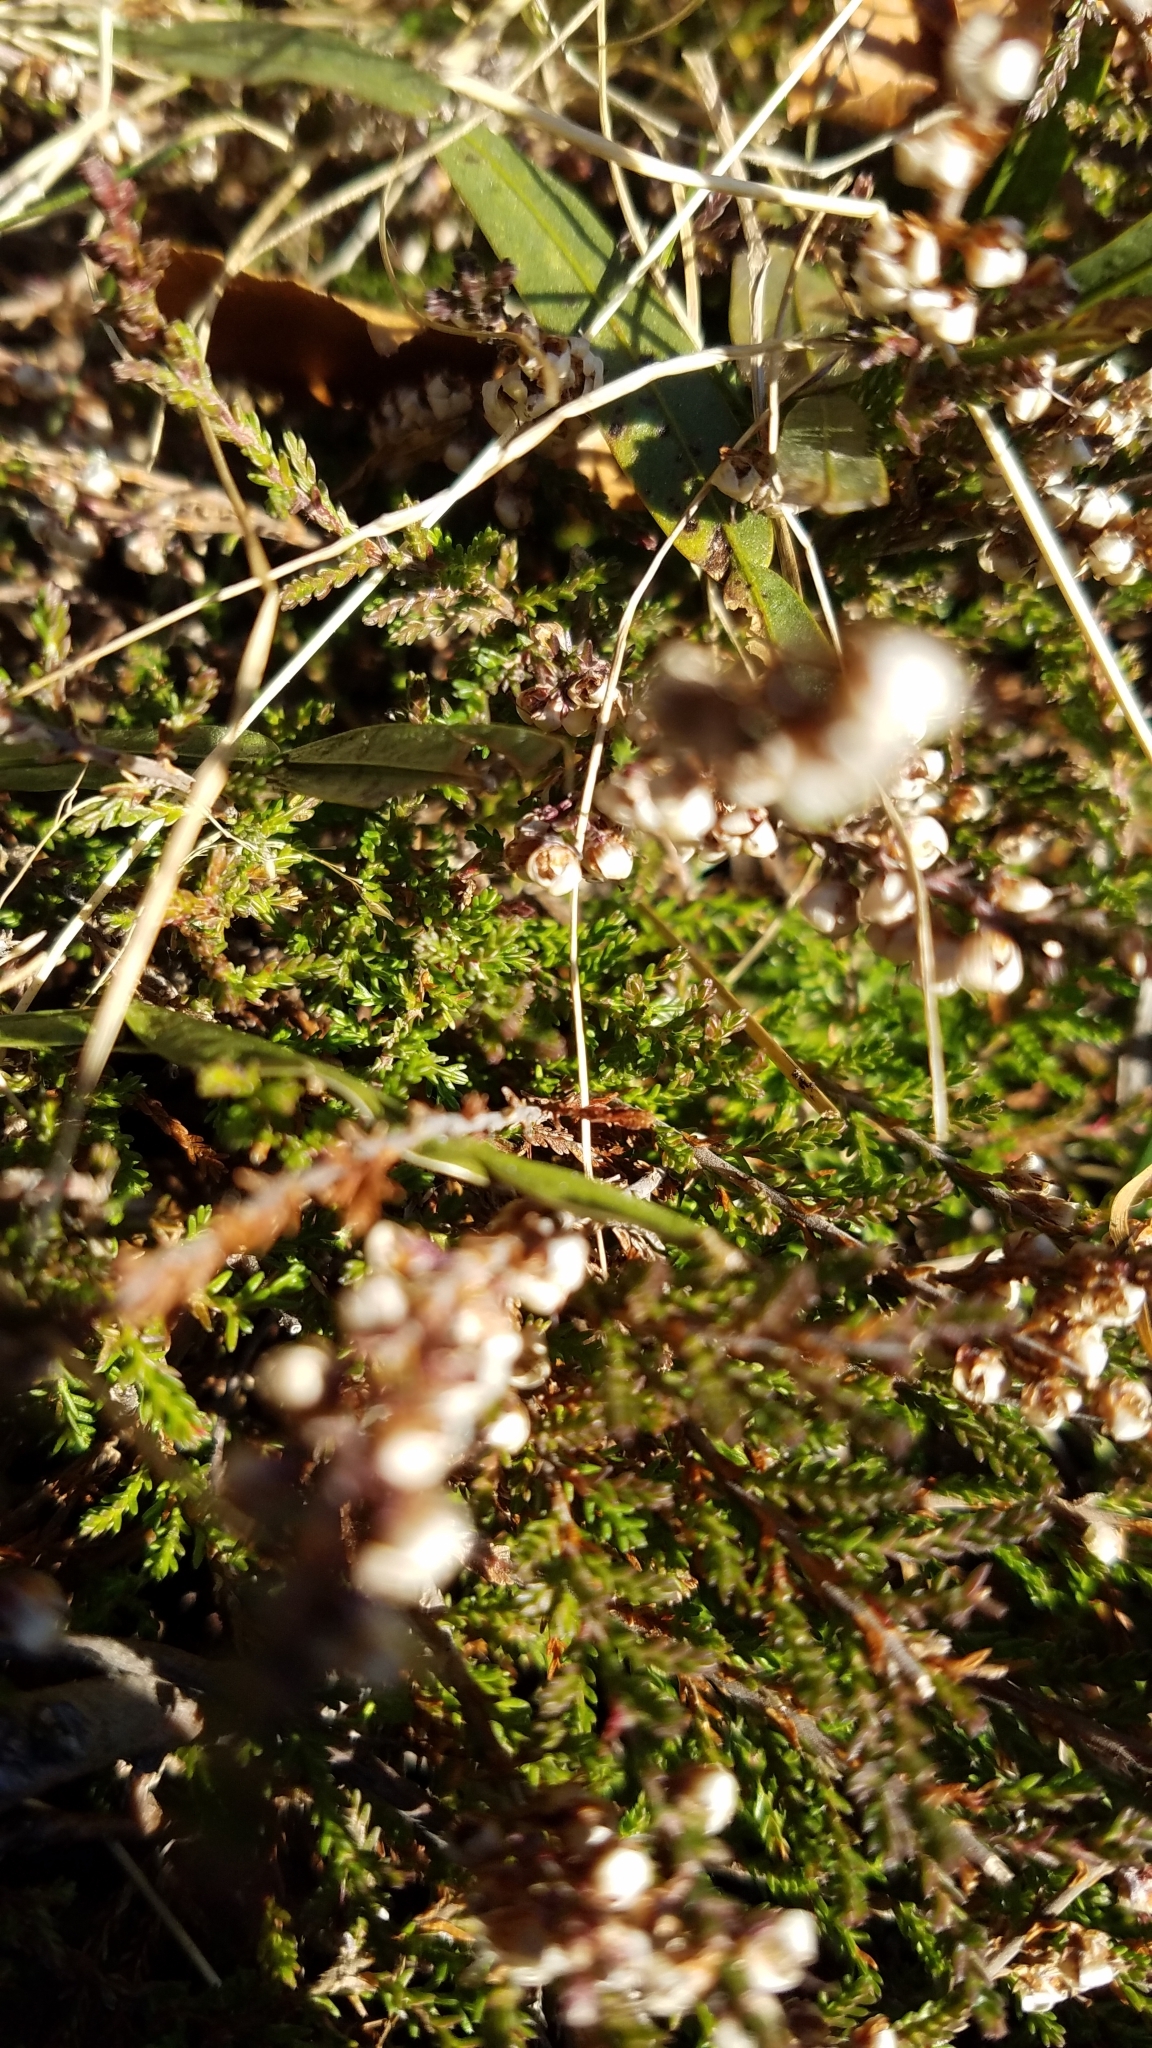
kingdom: Plantae
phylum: Tracheophyta
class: Magnoliopsida
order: Ericales
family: Ericaceae
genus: Calluna
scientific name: Calluna vulgaris
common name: Heather
